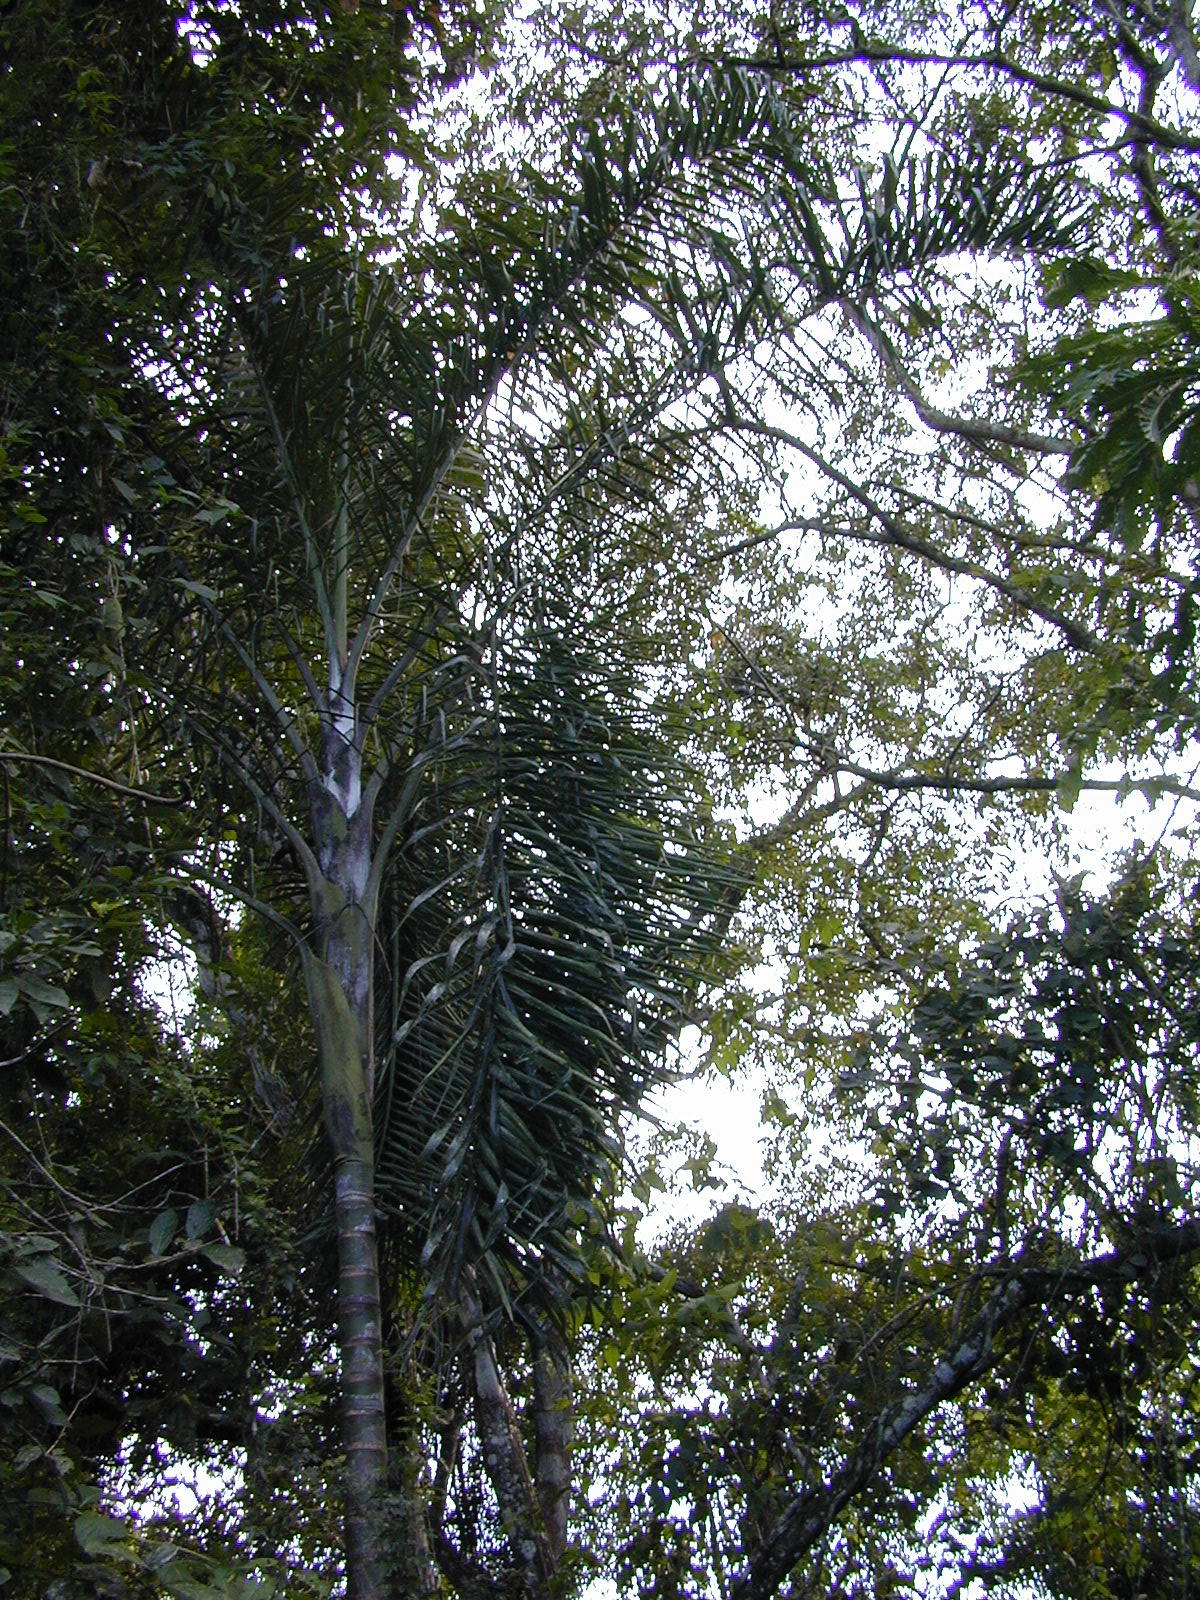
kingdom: Plantae
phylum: Tracheophyta
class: Liliopsida
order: Arecales
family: Arecaceae
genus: Dypsis
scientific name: Dypsis madagascariensis
